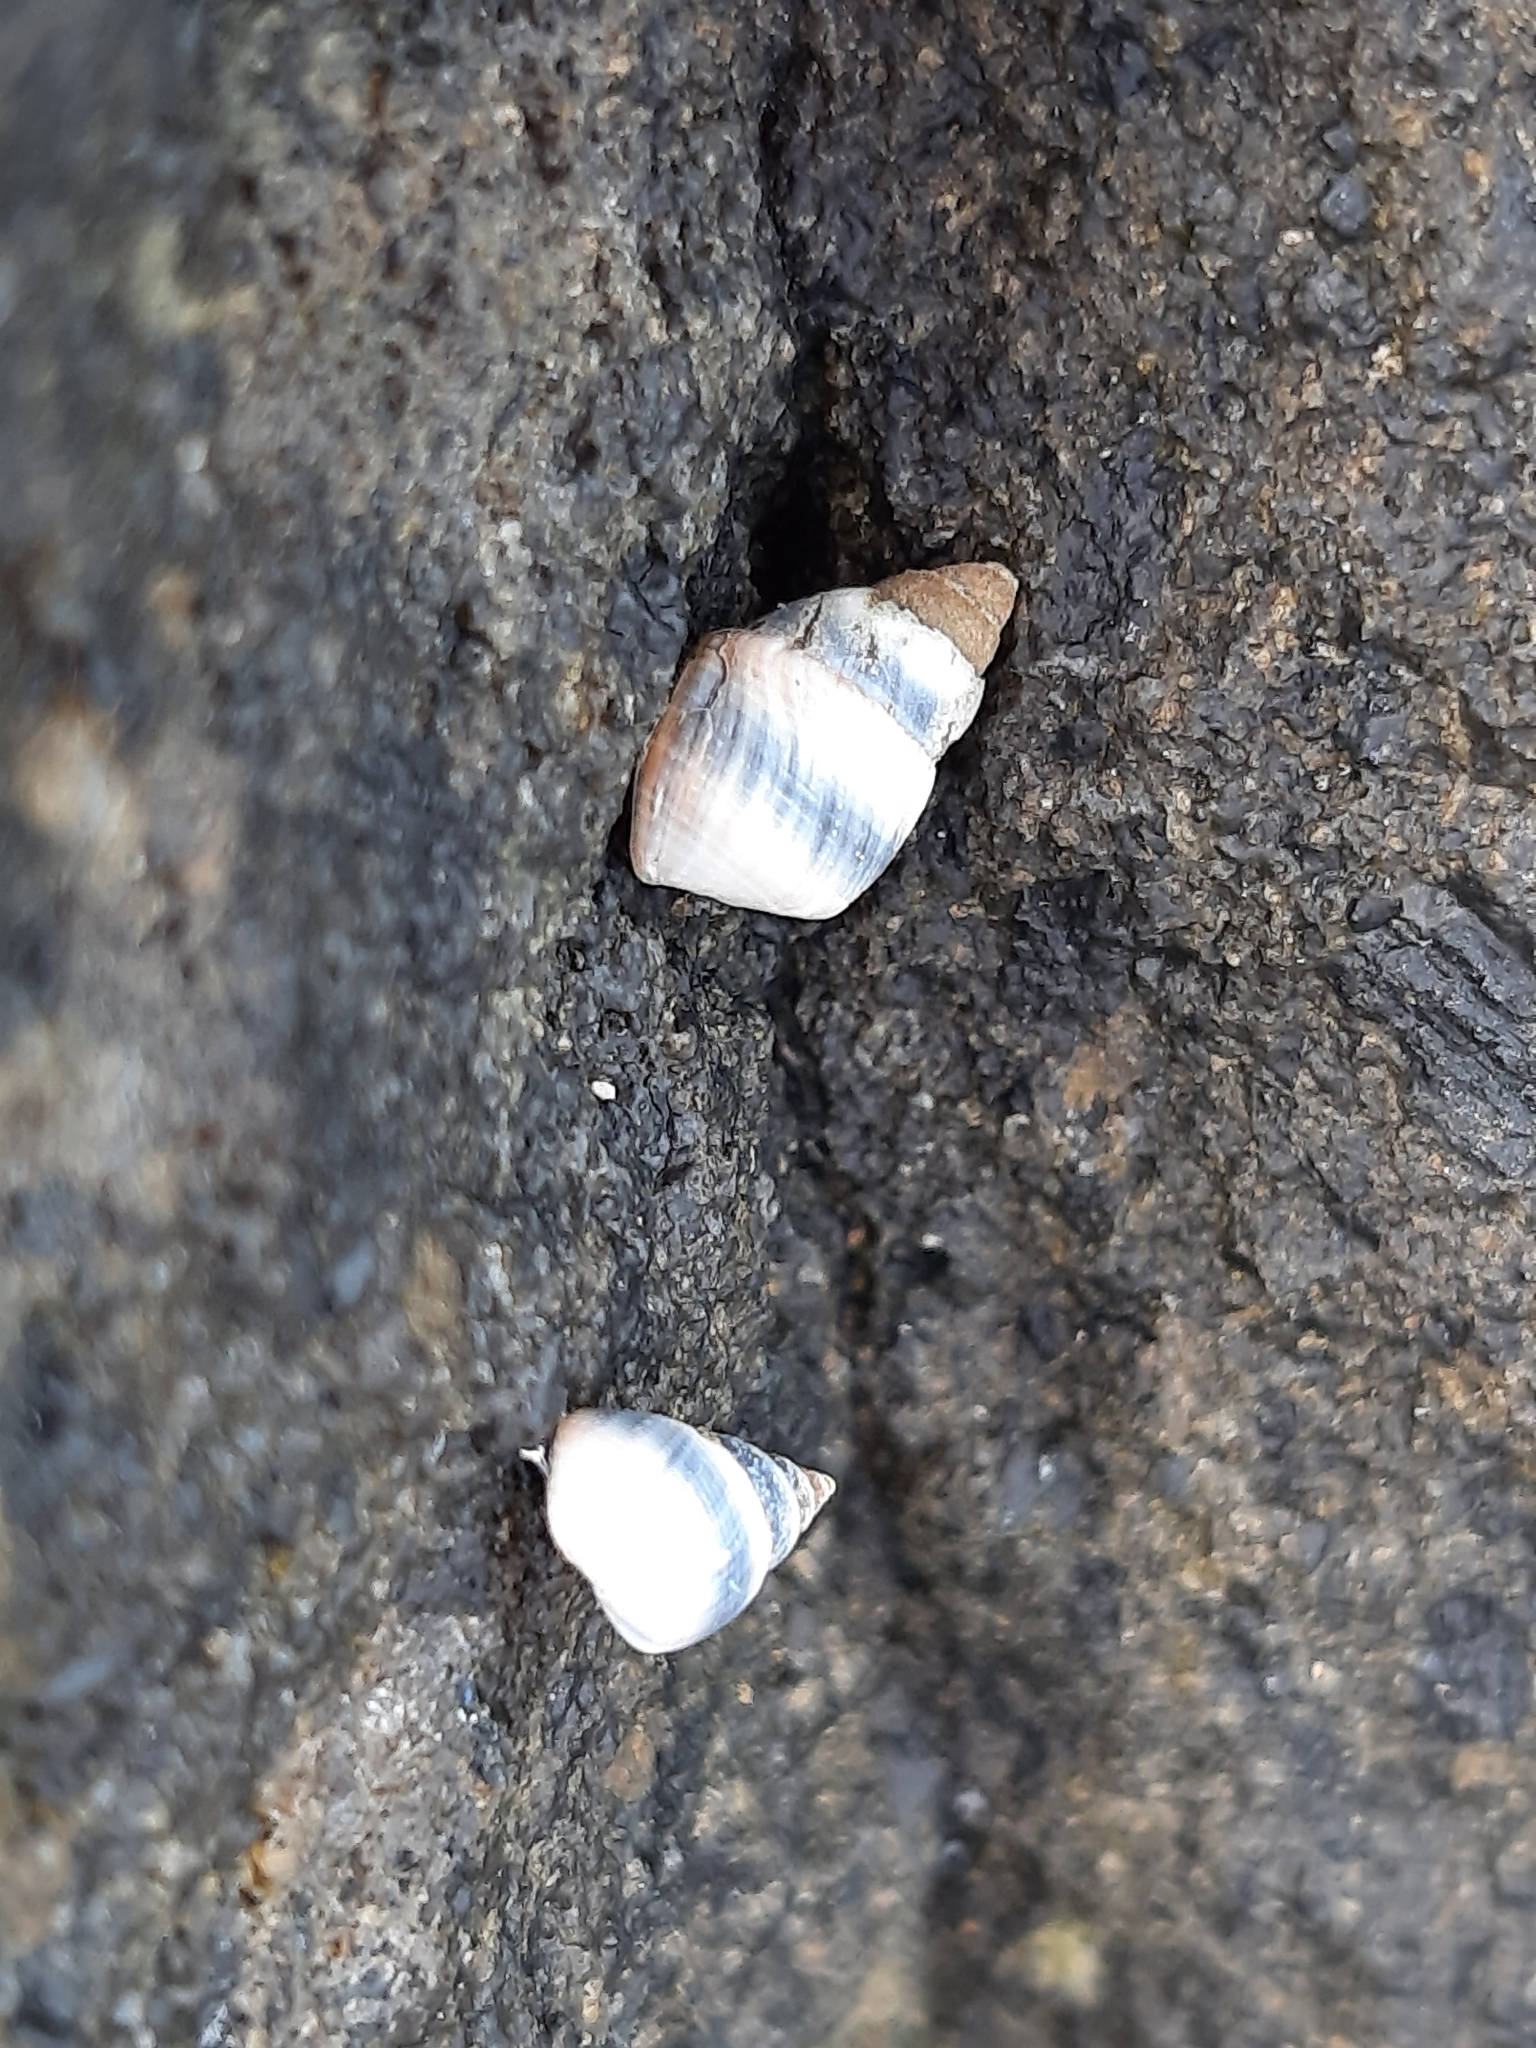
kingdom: Animalia
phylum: Mollusca
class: Gastropoda
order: Littorinimorpha
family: Littorinidae
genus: Austrolittorina
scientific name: Austrolittorina antipodum
